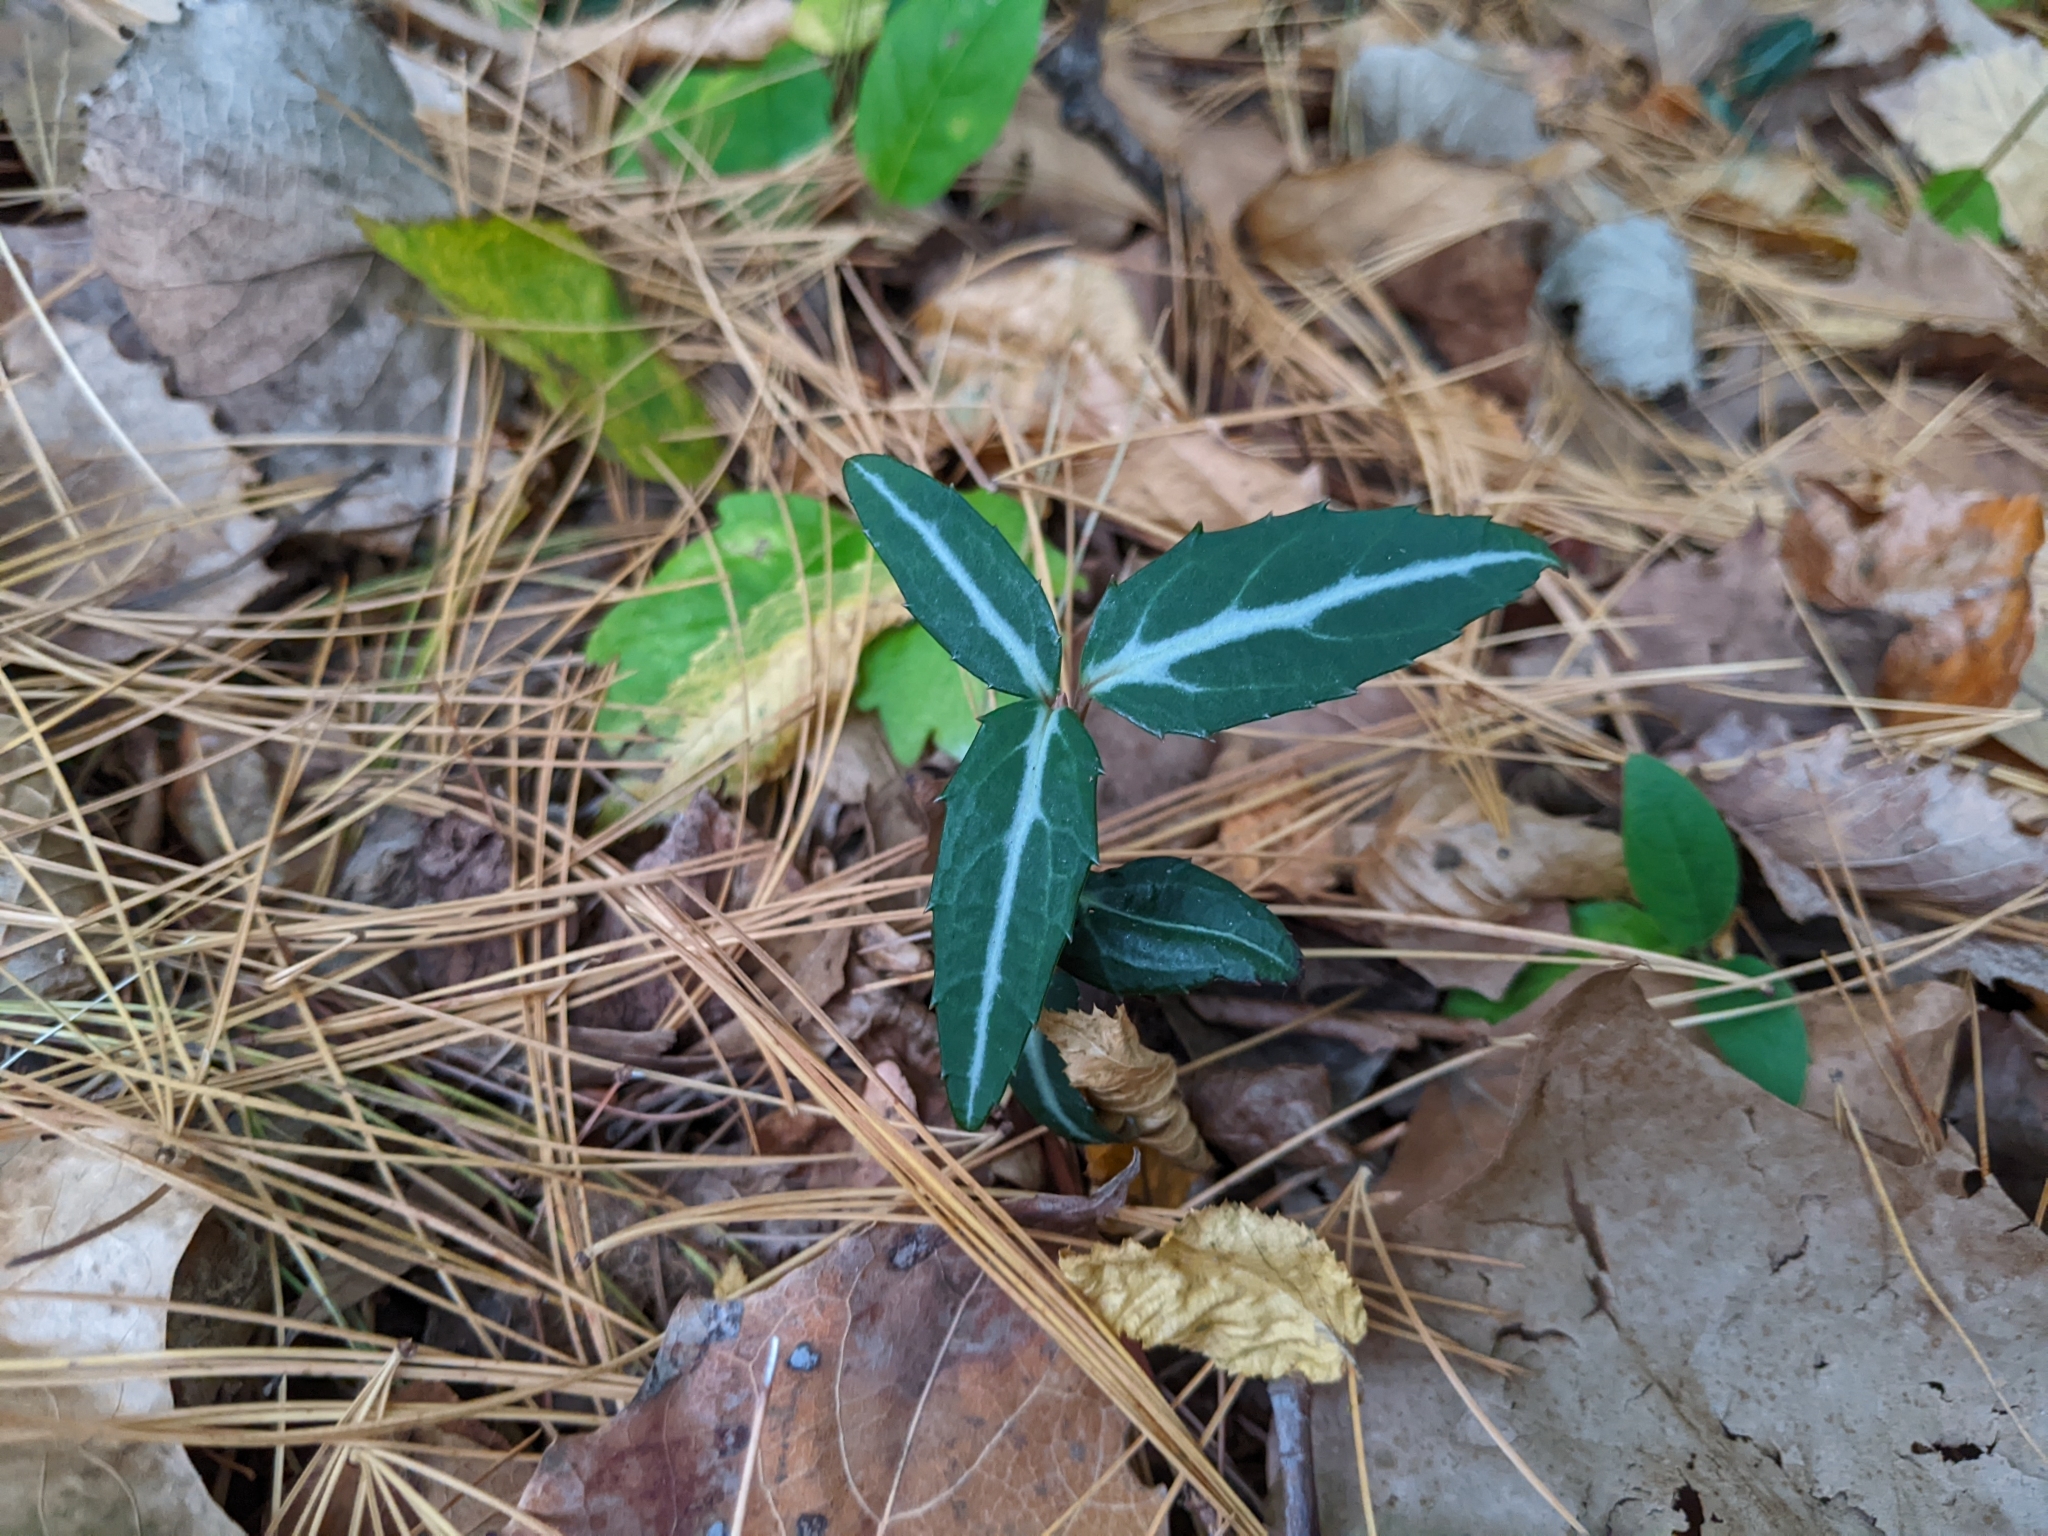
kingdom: Plantae
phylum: Tracheophyta
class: Magnoliopsida
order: Ericales
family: Ericaceae
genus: Chimaphila
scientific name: Chimaphila maculata
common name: Spotted pipsissewa
